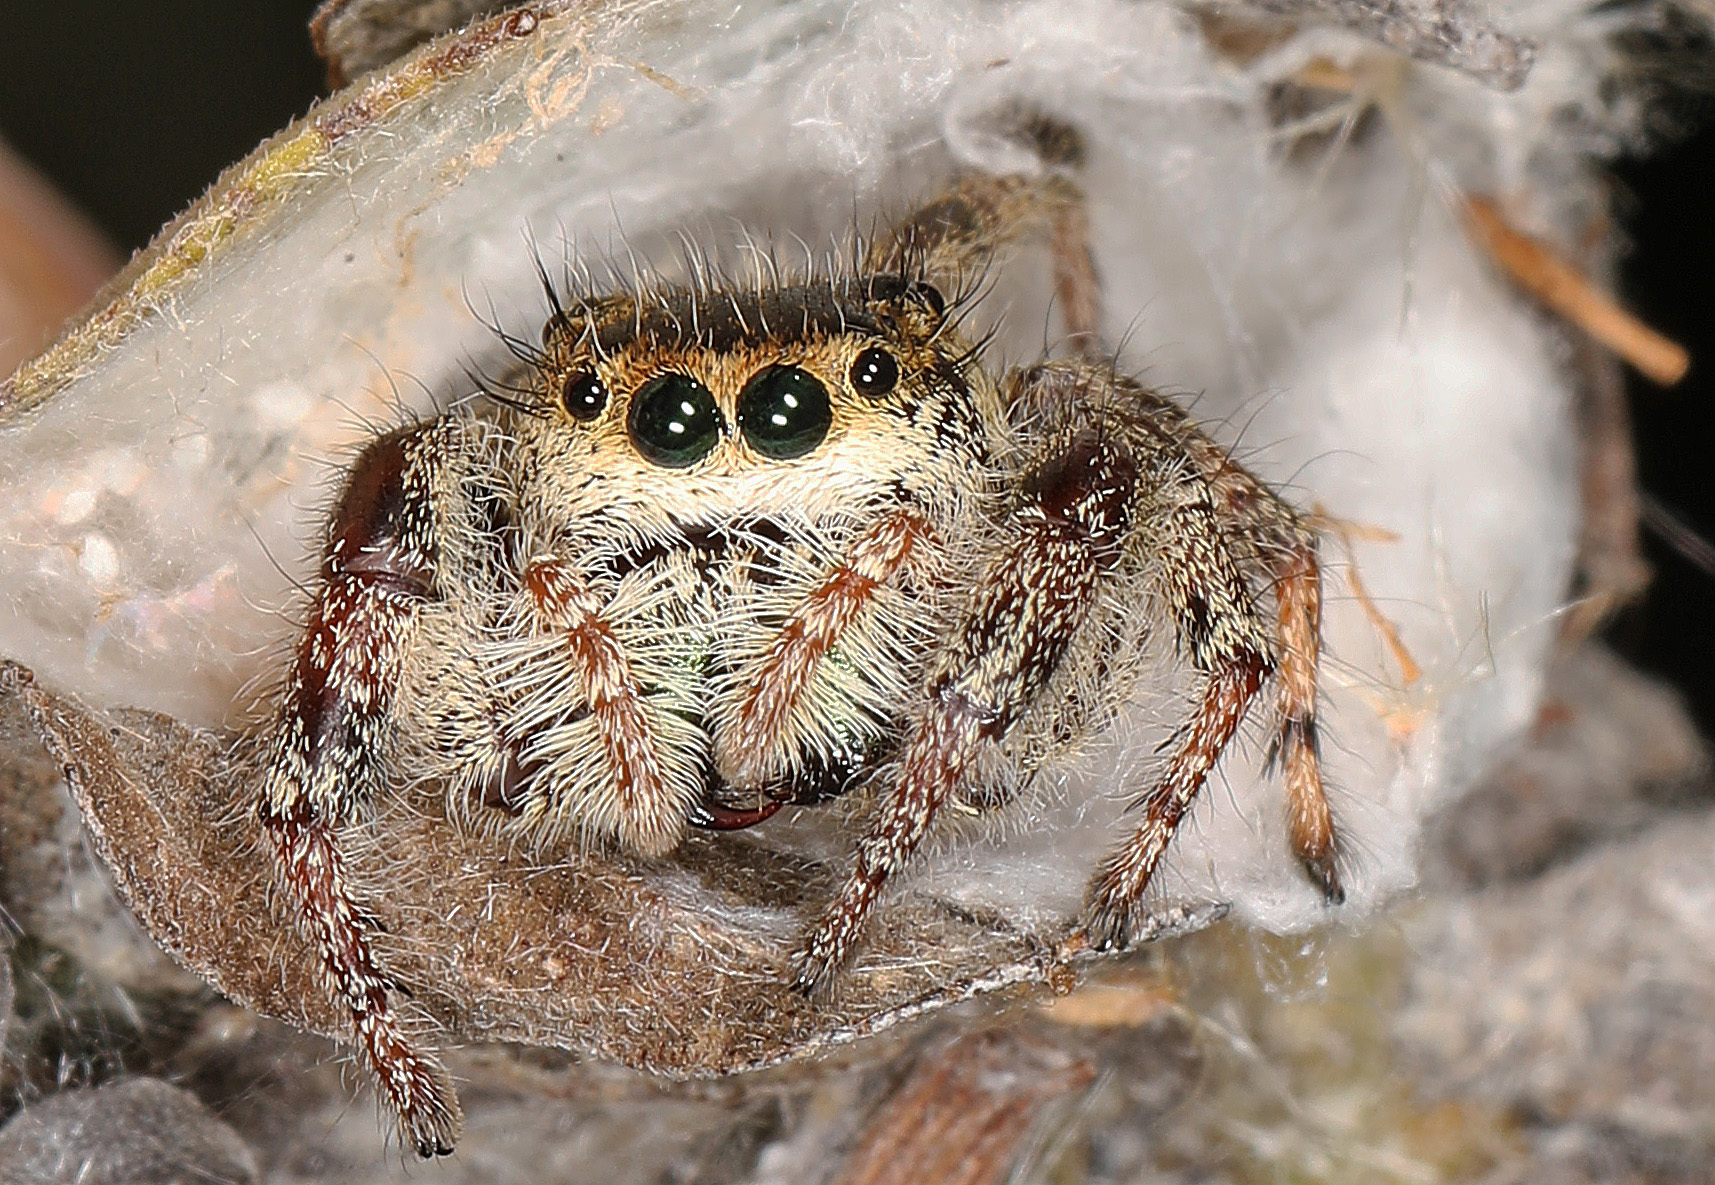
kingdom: Animalia
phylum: Arthropoda
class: Arachnida
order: Araneae
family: Salticidae
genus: Phidippus
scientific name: Phidippus clarus
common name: Brilliant jumping spider
